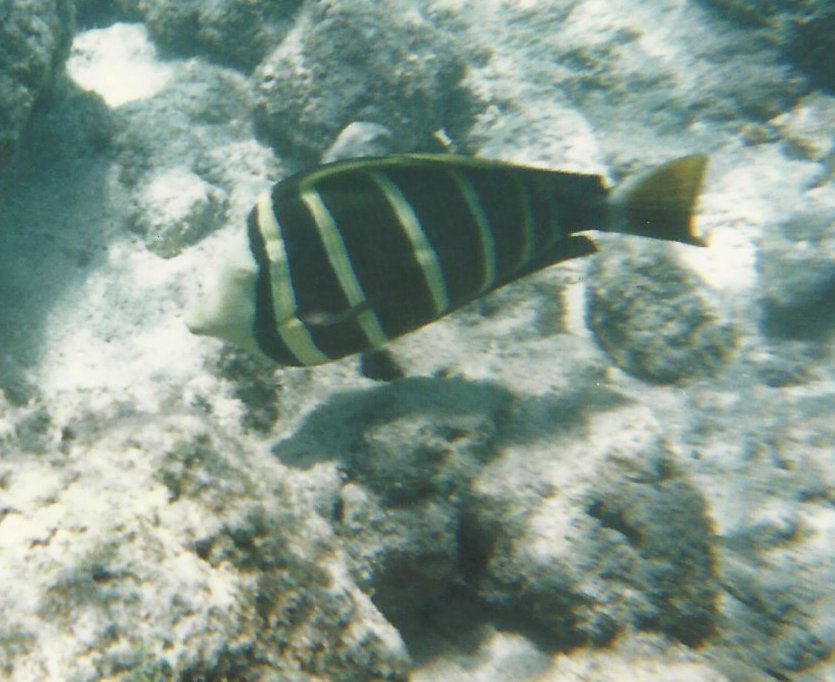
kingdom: Animalia
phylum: Chordata
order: Perciformes
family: Acanthuridae
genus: Zebrasoma
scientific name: Zebrasoma veliferum
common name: Sailfin surgeonfish
